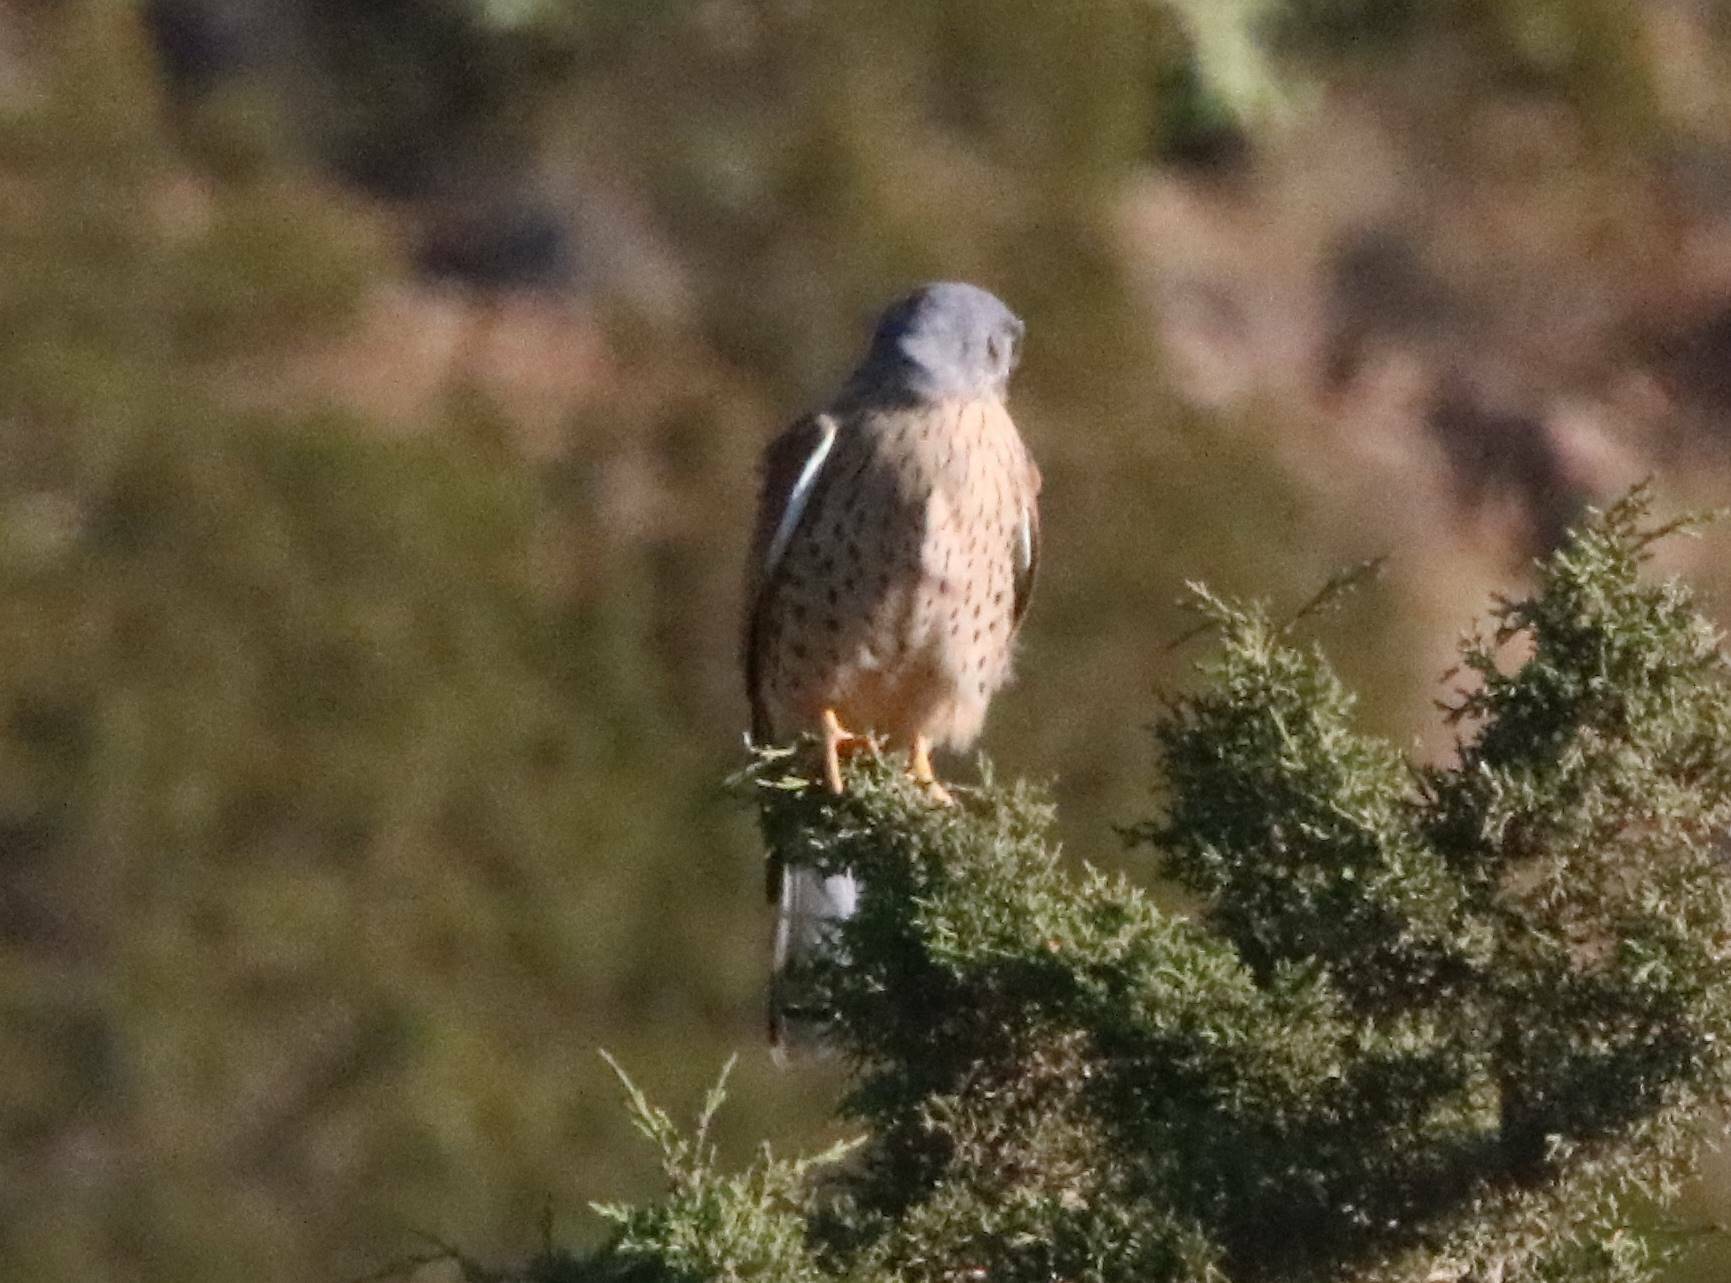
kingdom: Animalia
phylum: Chordata
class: Aves
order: Falconiformes
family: Falconidae
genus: Falco
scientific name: Falco tinnunculus
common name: Common kestrel
